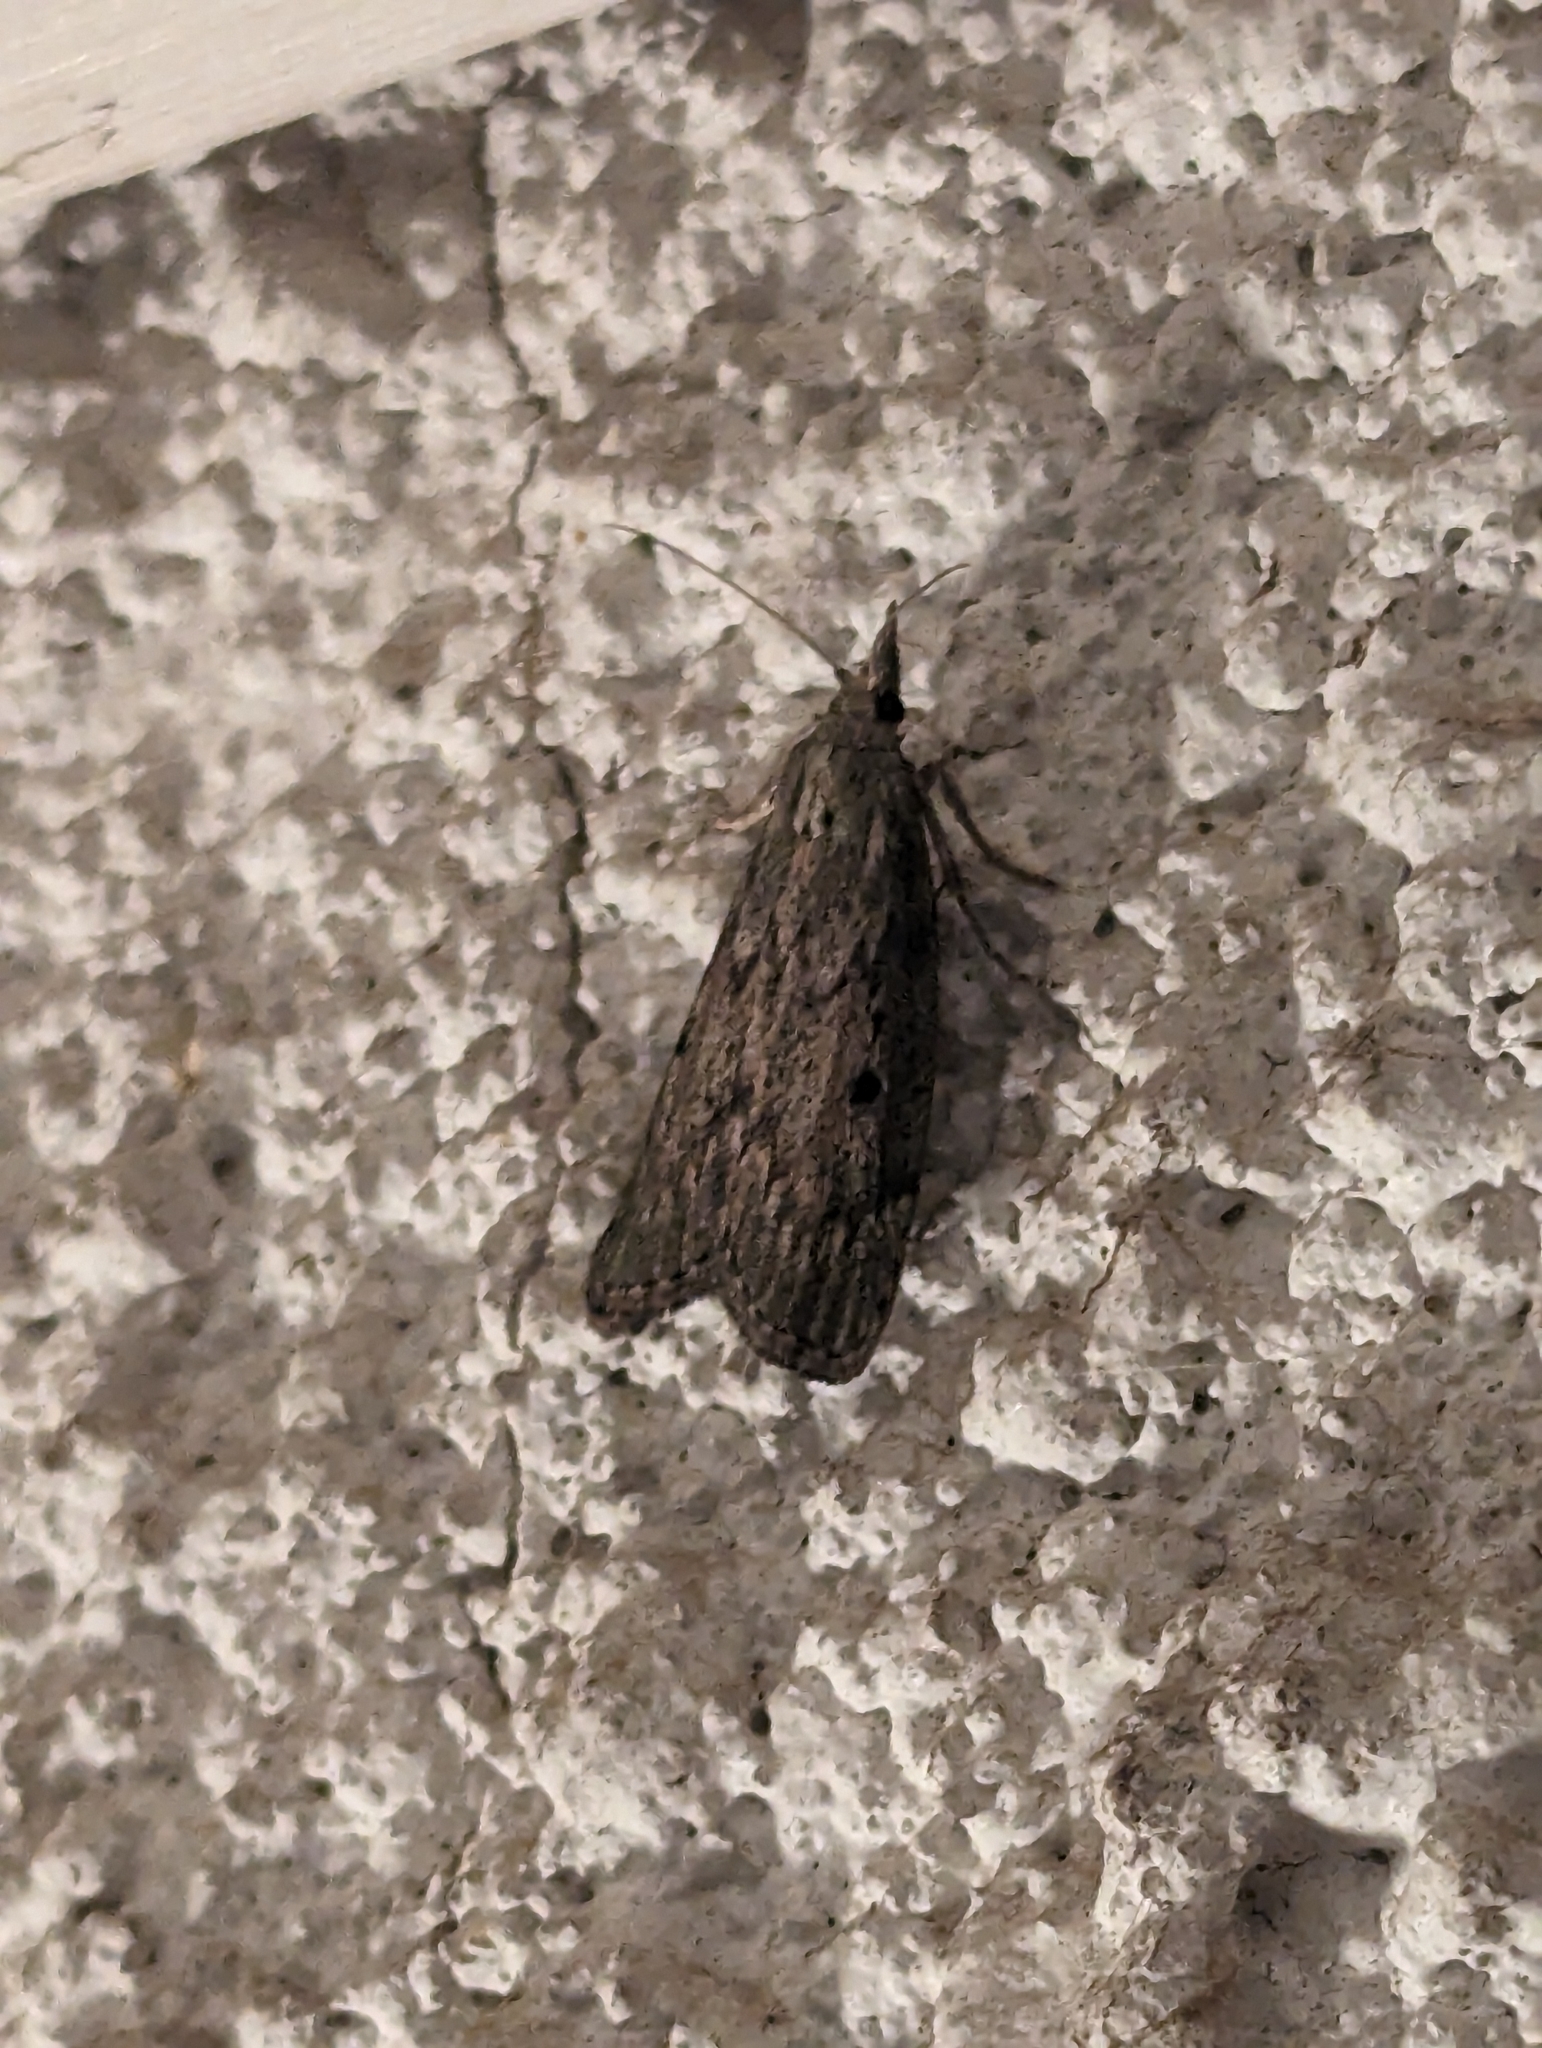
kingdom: Animalia
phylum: Arthropoda
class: Insecta
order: Lepidoptera
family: Pyralidae
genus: Aphomia
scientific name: Aphomia sociella
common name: Bee moth
